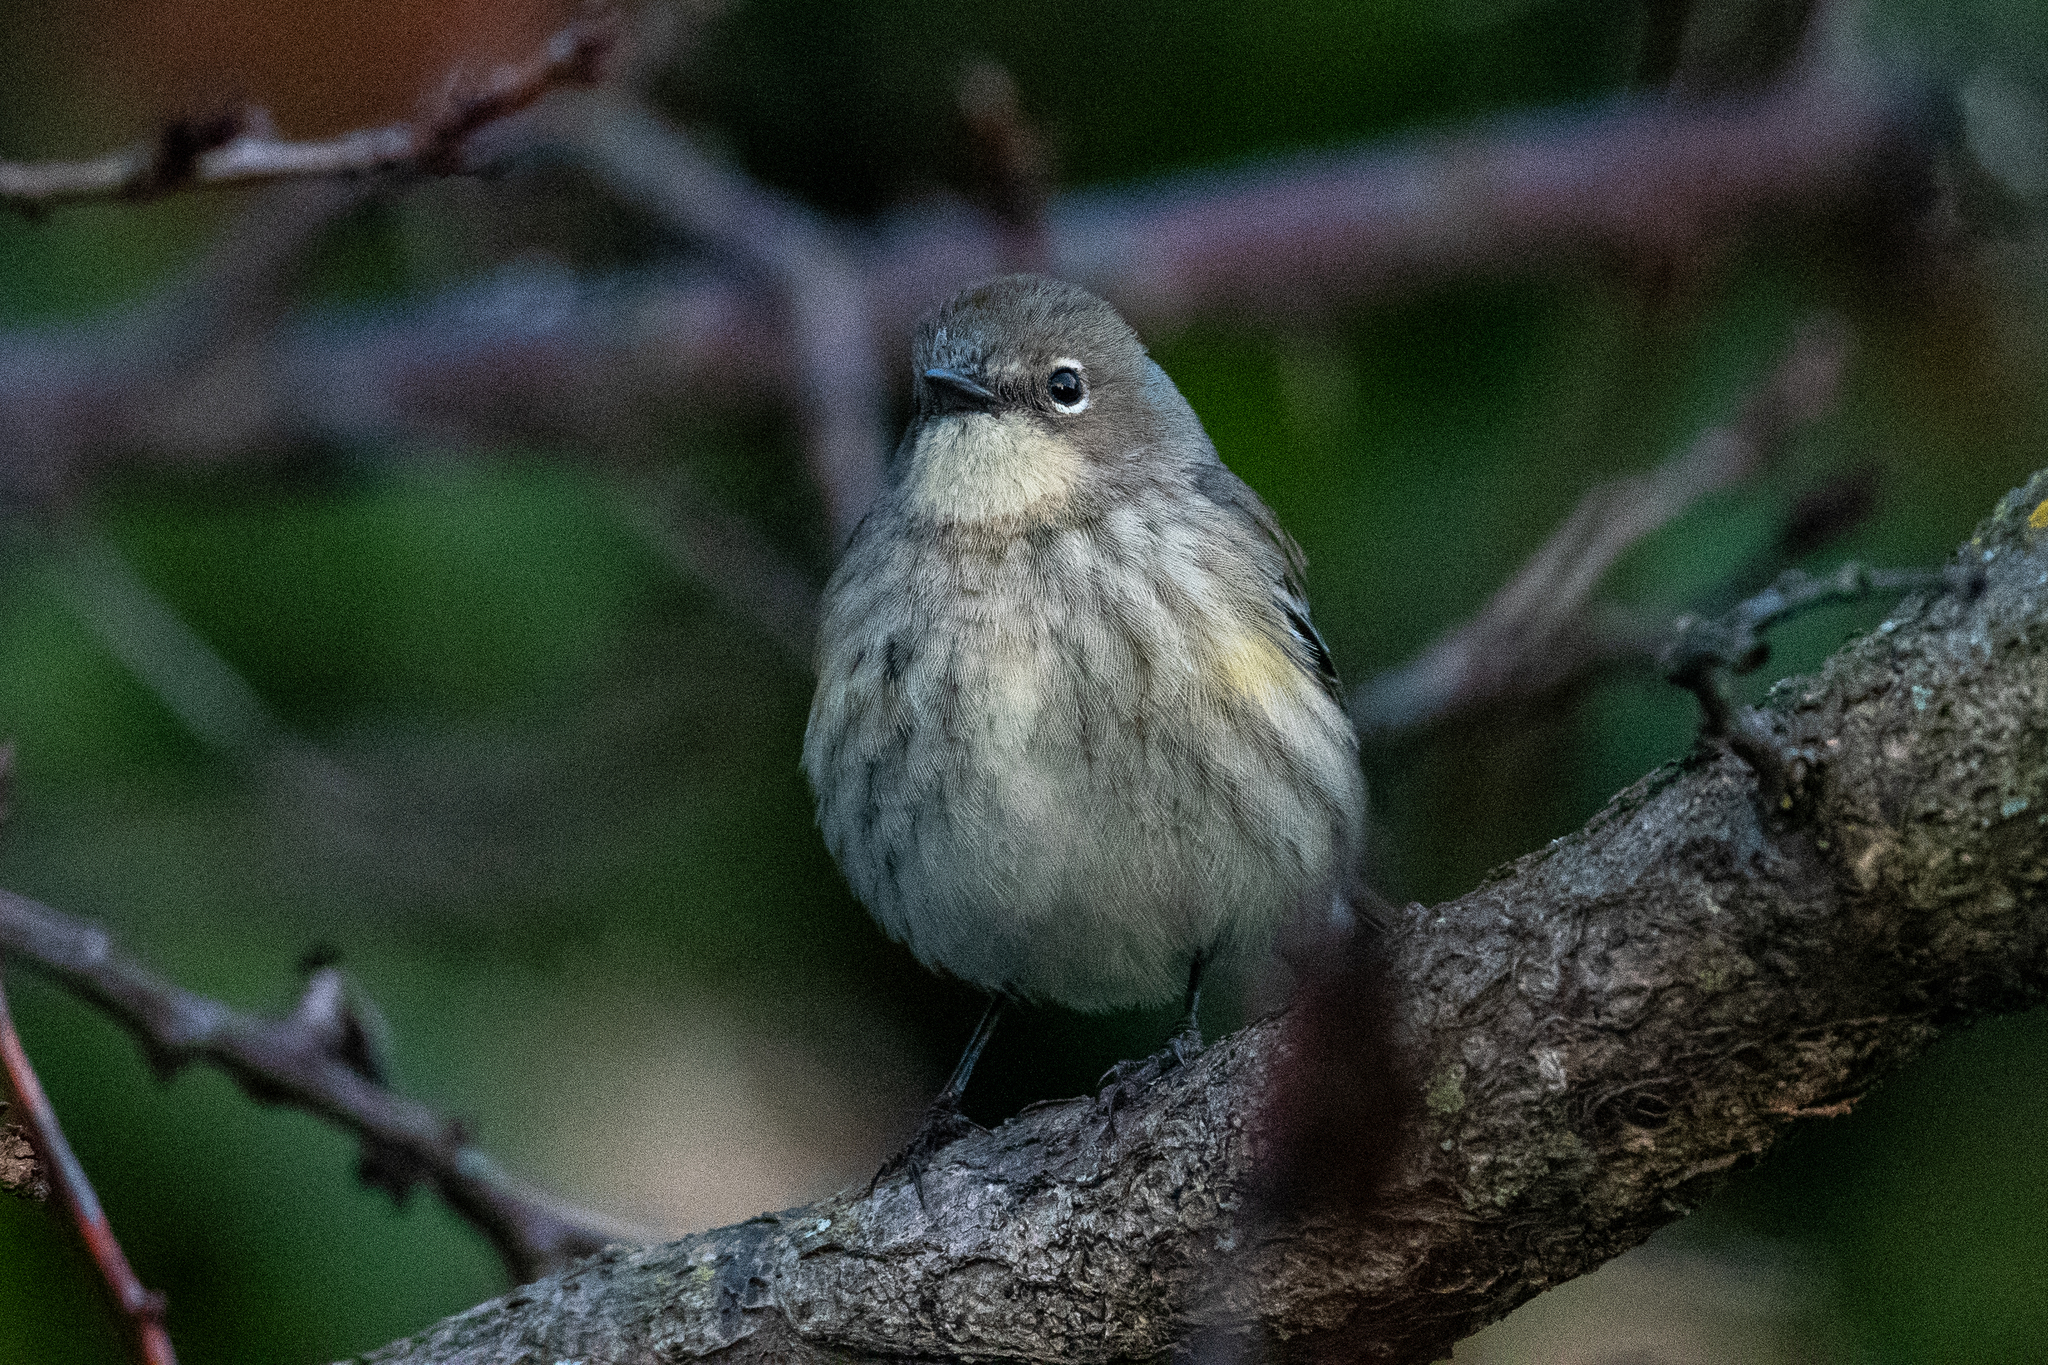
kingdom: Animalia
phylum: Chordata
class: Aves
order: Passeriformes
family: Parulidae
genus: Setophaga
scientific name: Setophaga coronata
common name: Myrtle warbler
